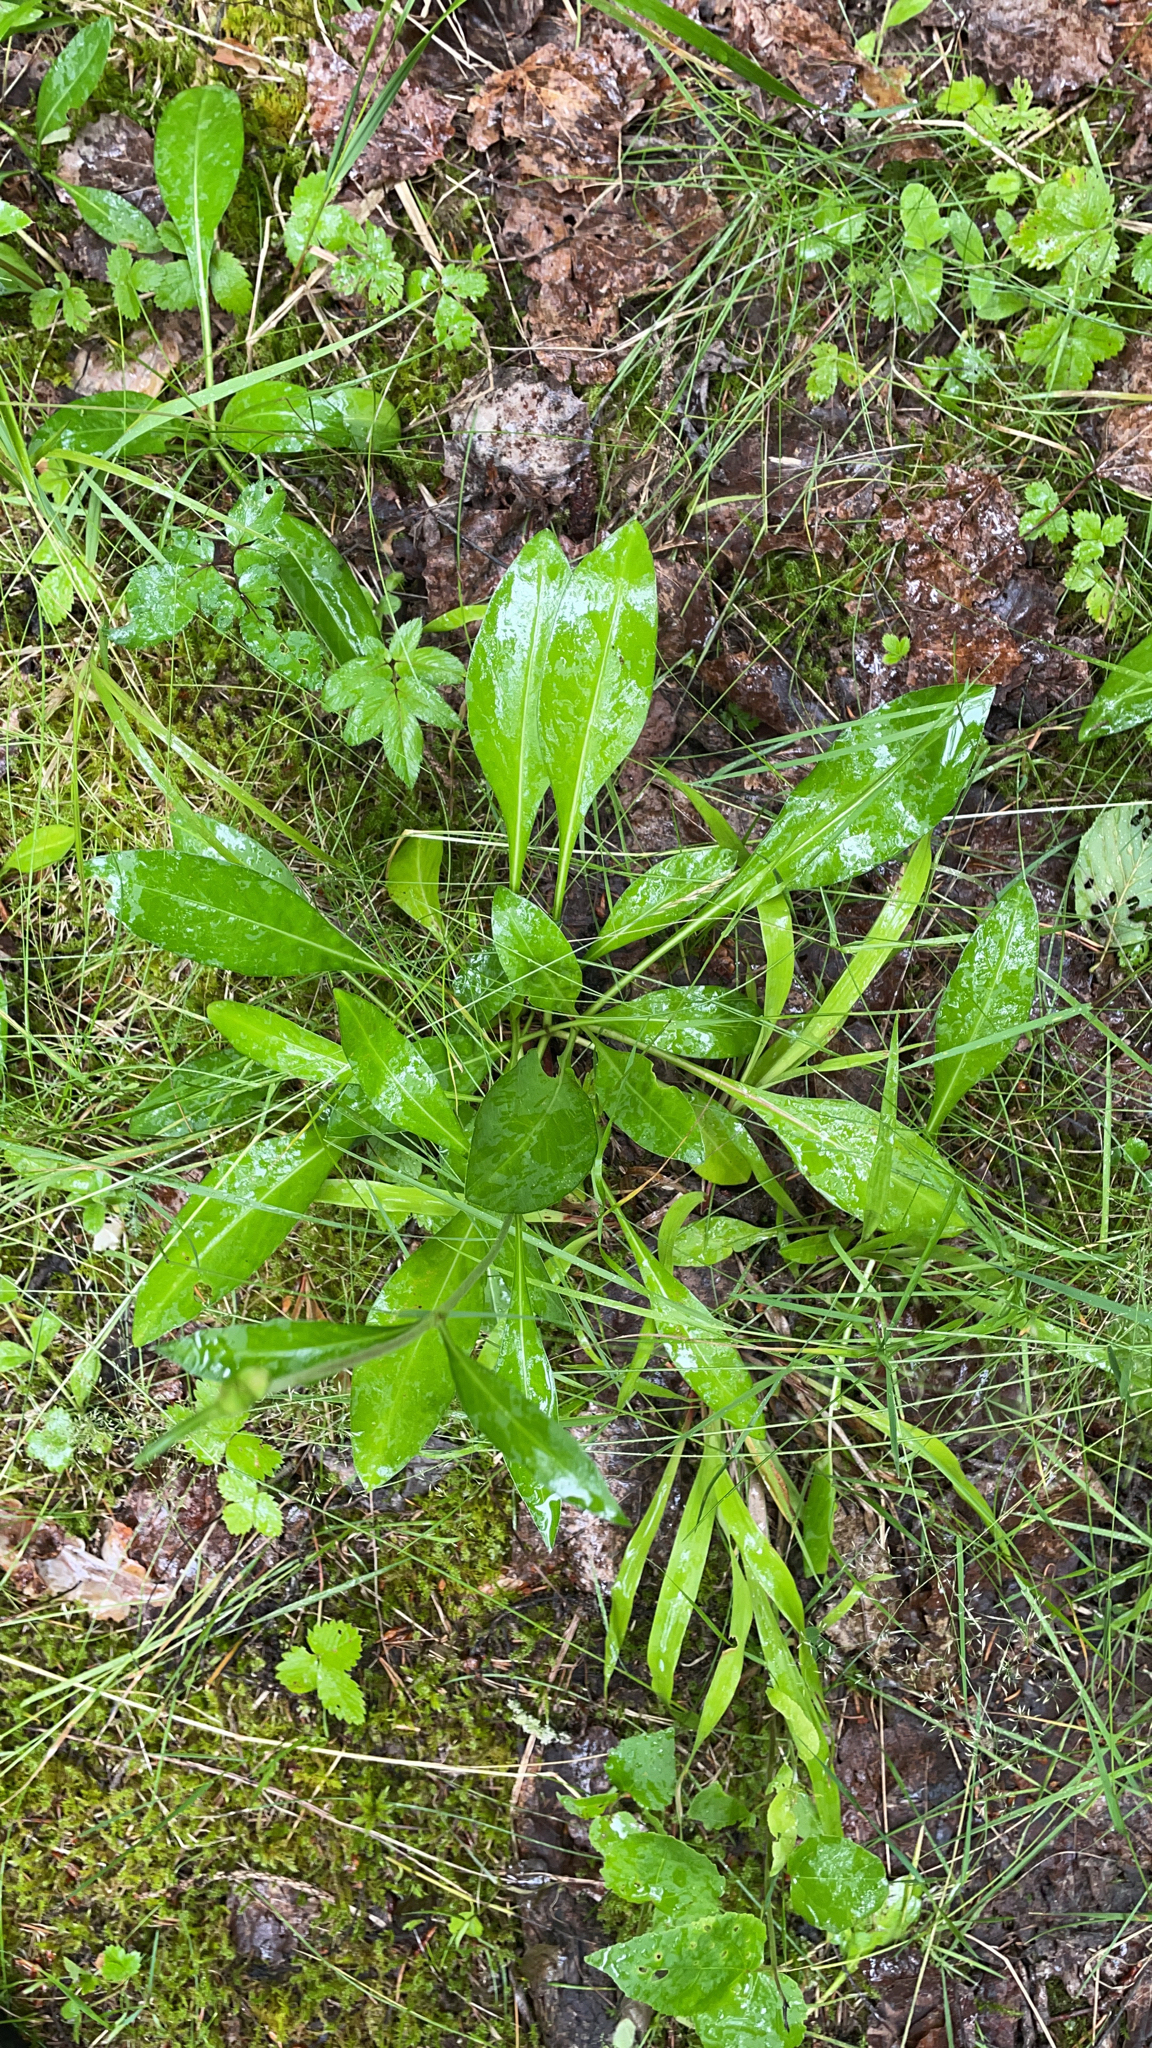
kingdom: Plantae
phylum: Tracheophyta
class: Magnoliopsida
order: Dipsacales
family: Caprifoliaceae
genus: Succisa
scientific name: Succisa pratensis
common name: Devil's-bit
